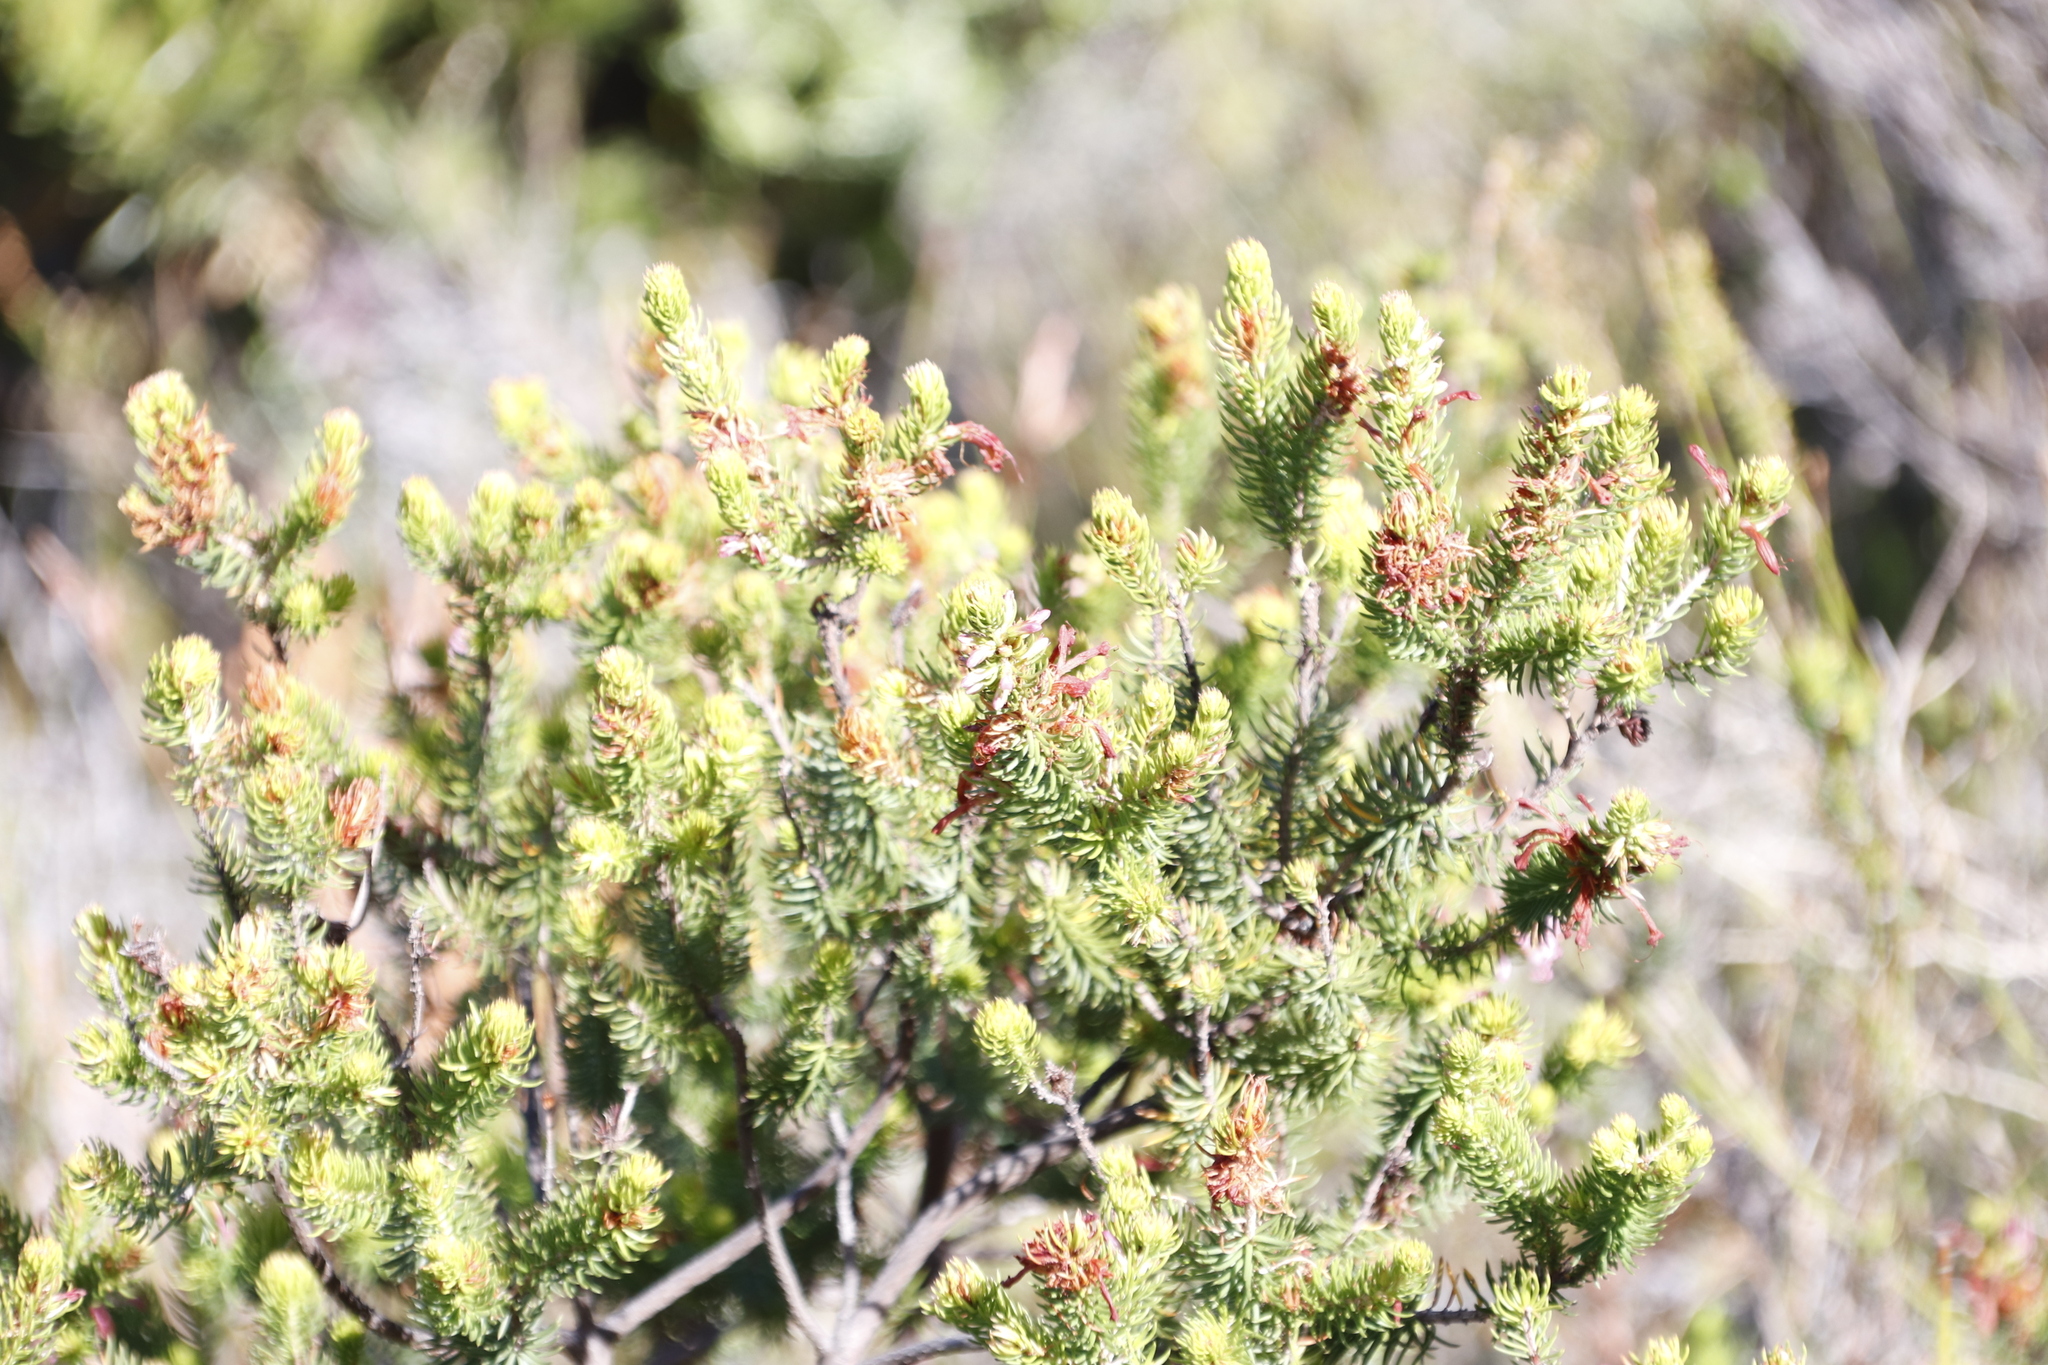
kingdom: Plantae
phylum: Tracheophyta
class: Magnoliopsida
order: Ericales
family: Ericaceae
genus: Erica
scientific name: Erica abietina
